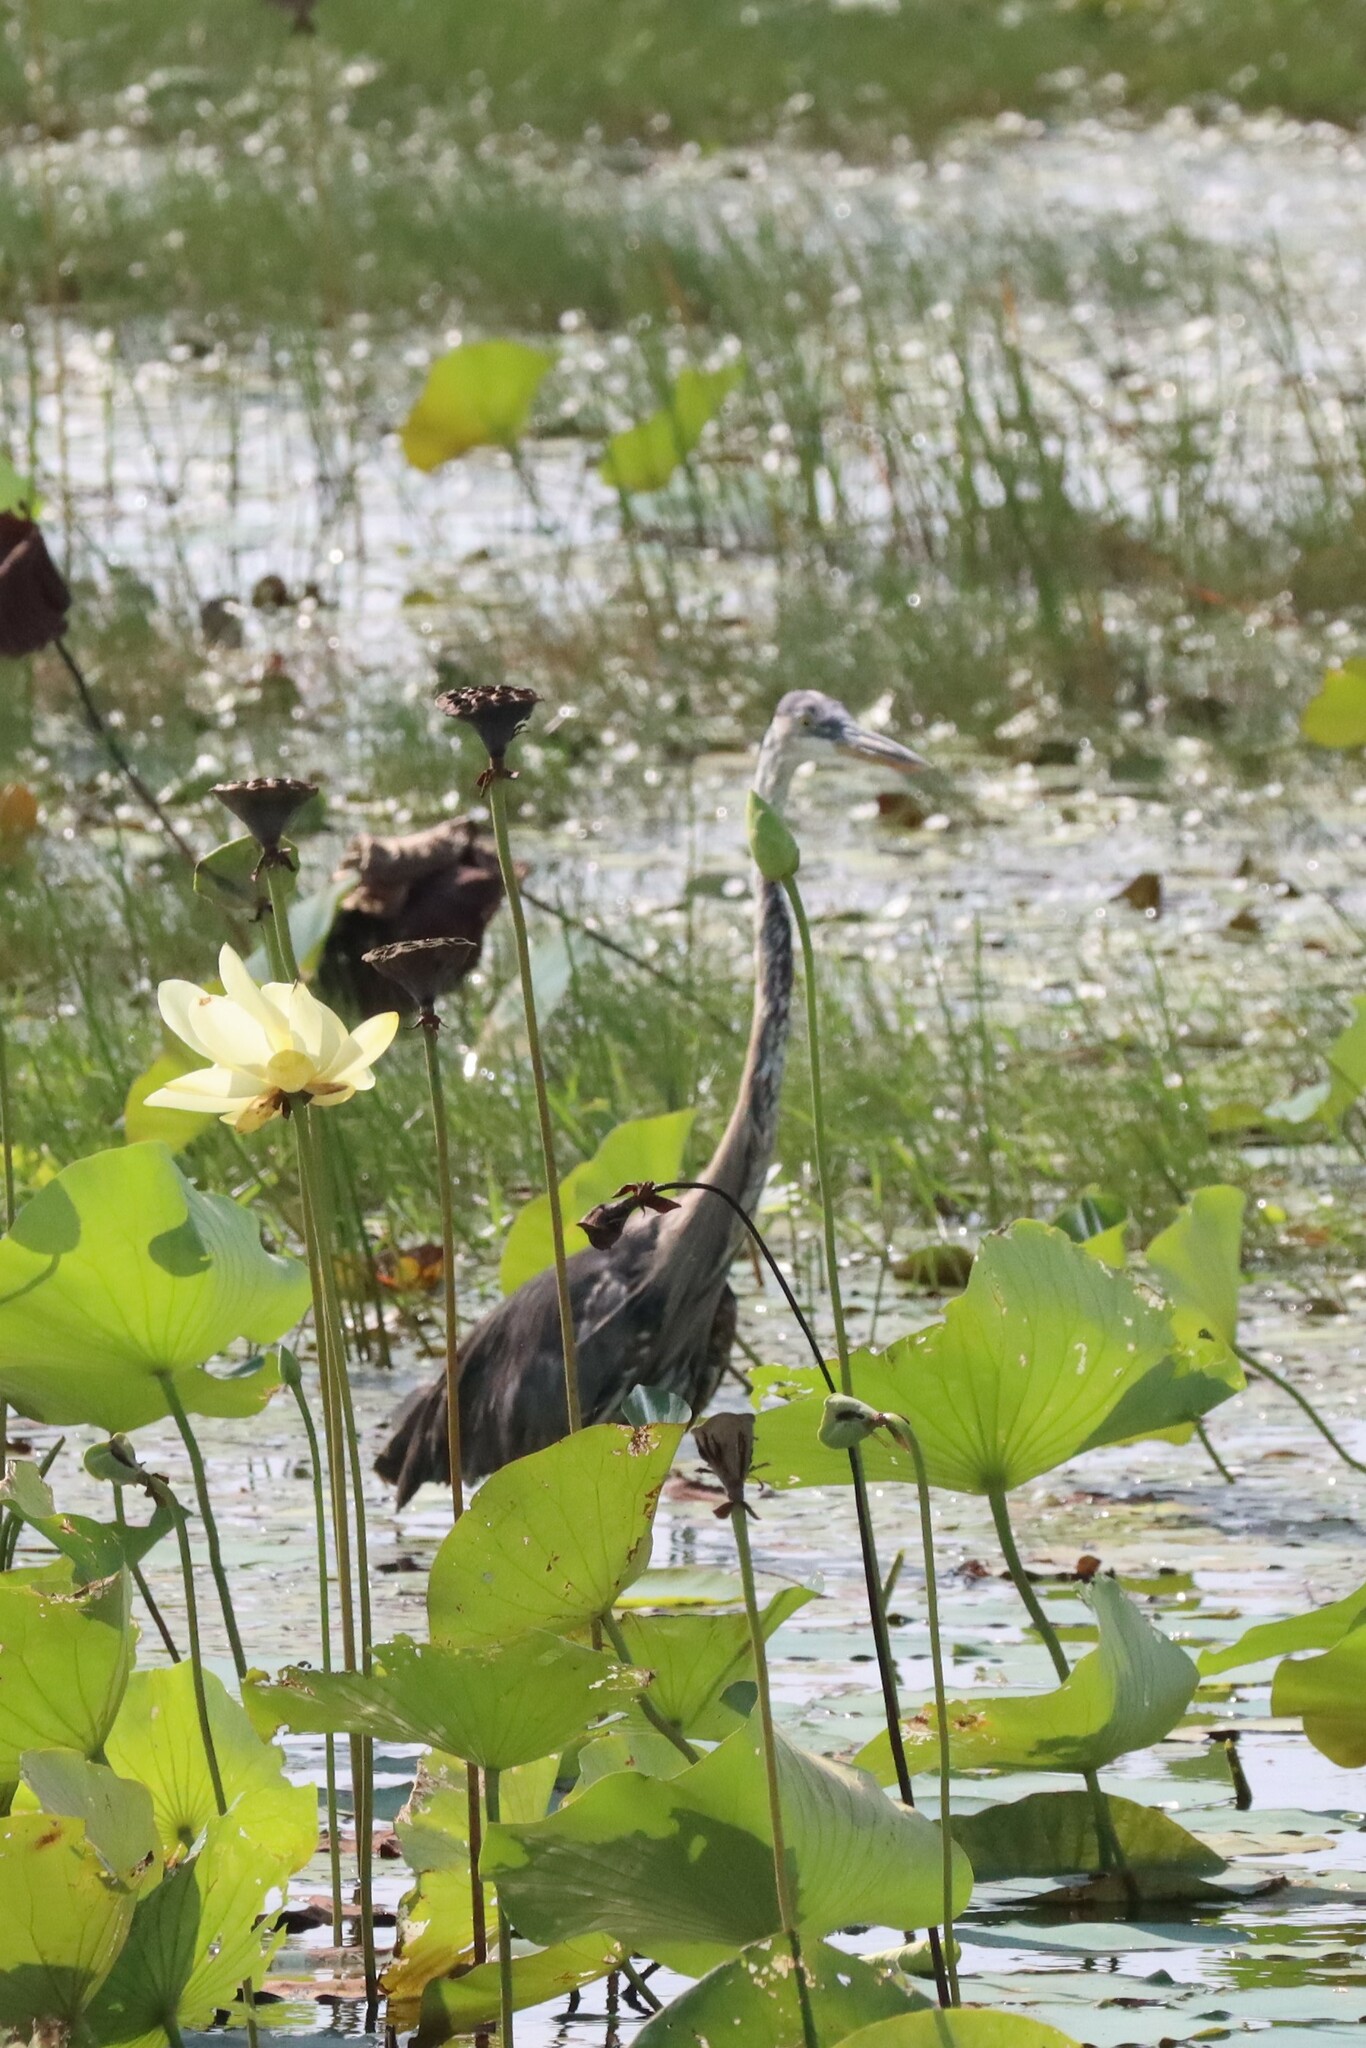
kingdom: Animalia
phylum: Chordata
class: Aves
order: Pelecaniformes
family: Ardeidae
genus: Ardea
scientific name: Ardea herodias
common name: Great blue heron
